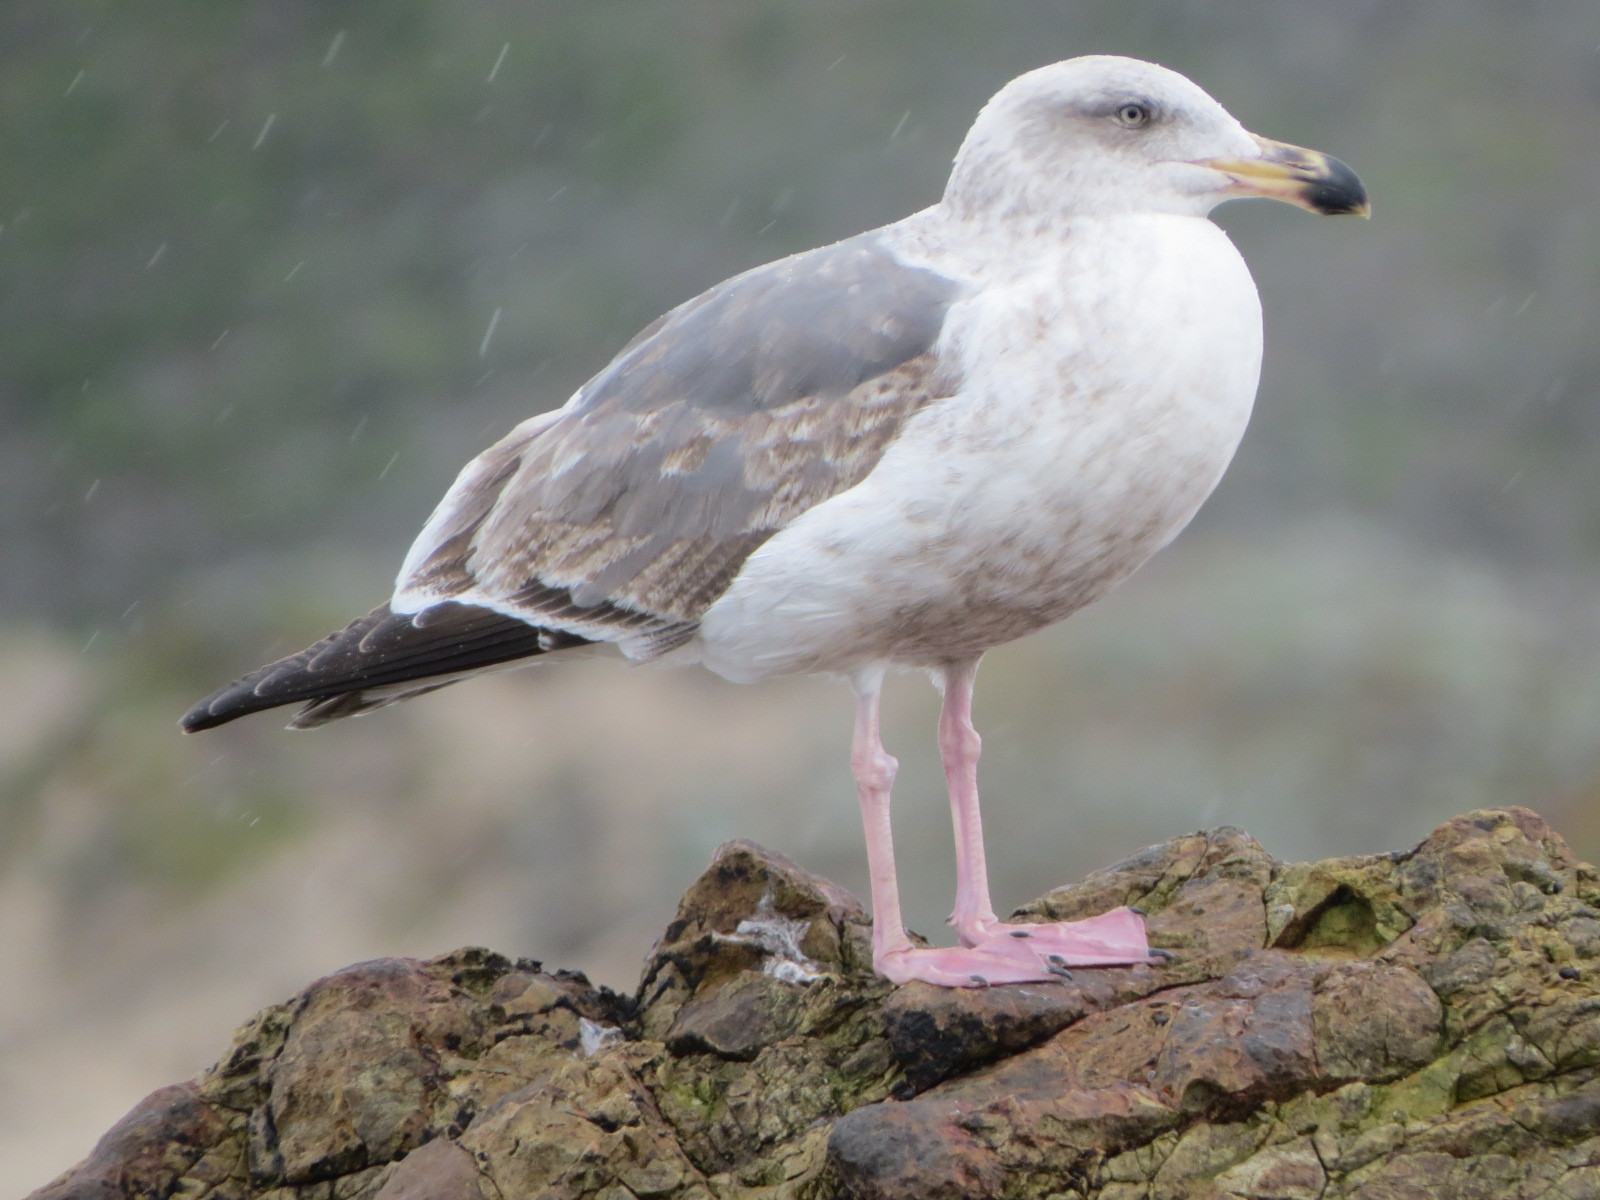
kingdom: Animalia
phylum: Chordata
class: Aves
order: Charadriiformes
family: Laridae
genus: Larus
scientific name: Larus occidentalis
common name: Western gull
